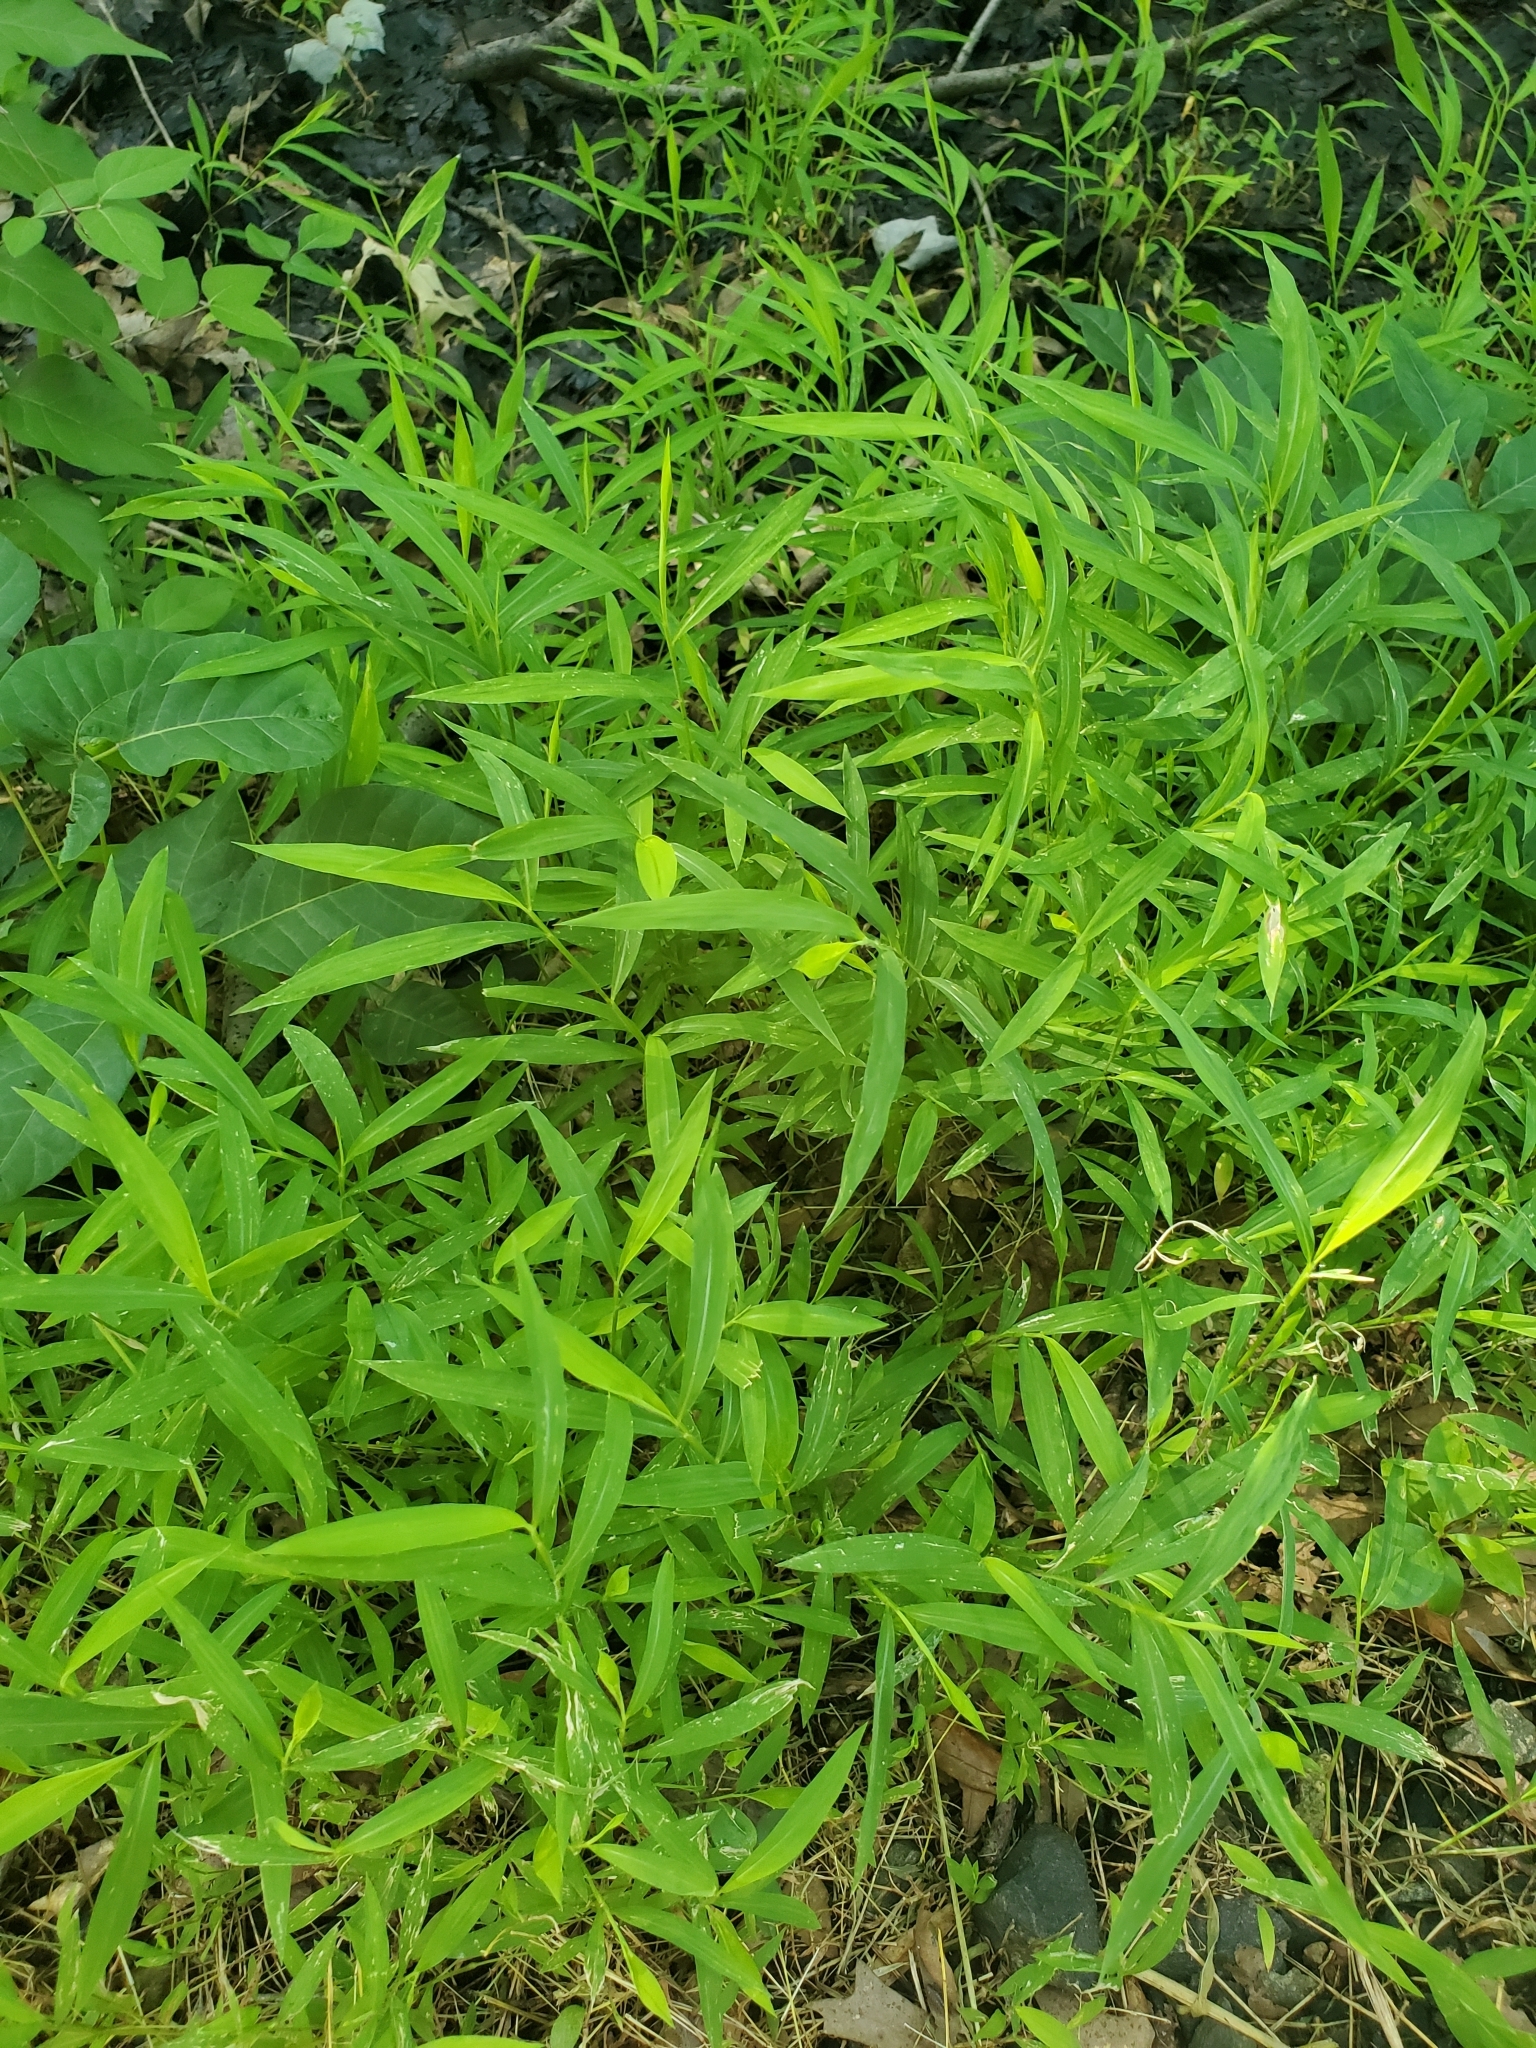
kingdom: Plantae
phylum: Tracheophyta
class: Liliopsida
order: Poales
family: Poaceae
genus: Microstegium
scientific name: Microstegium vimineum
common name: Japanese stiltgrass
